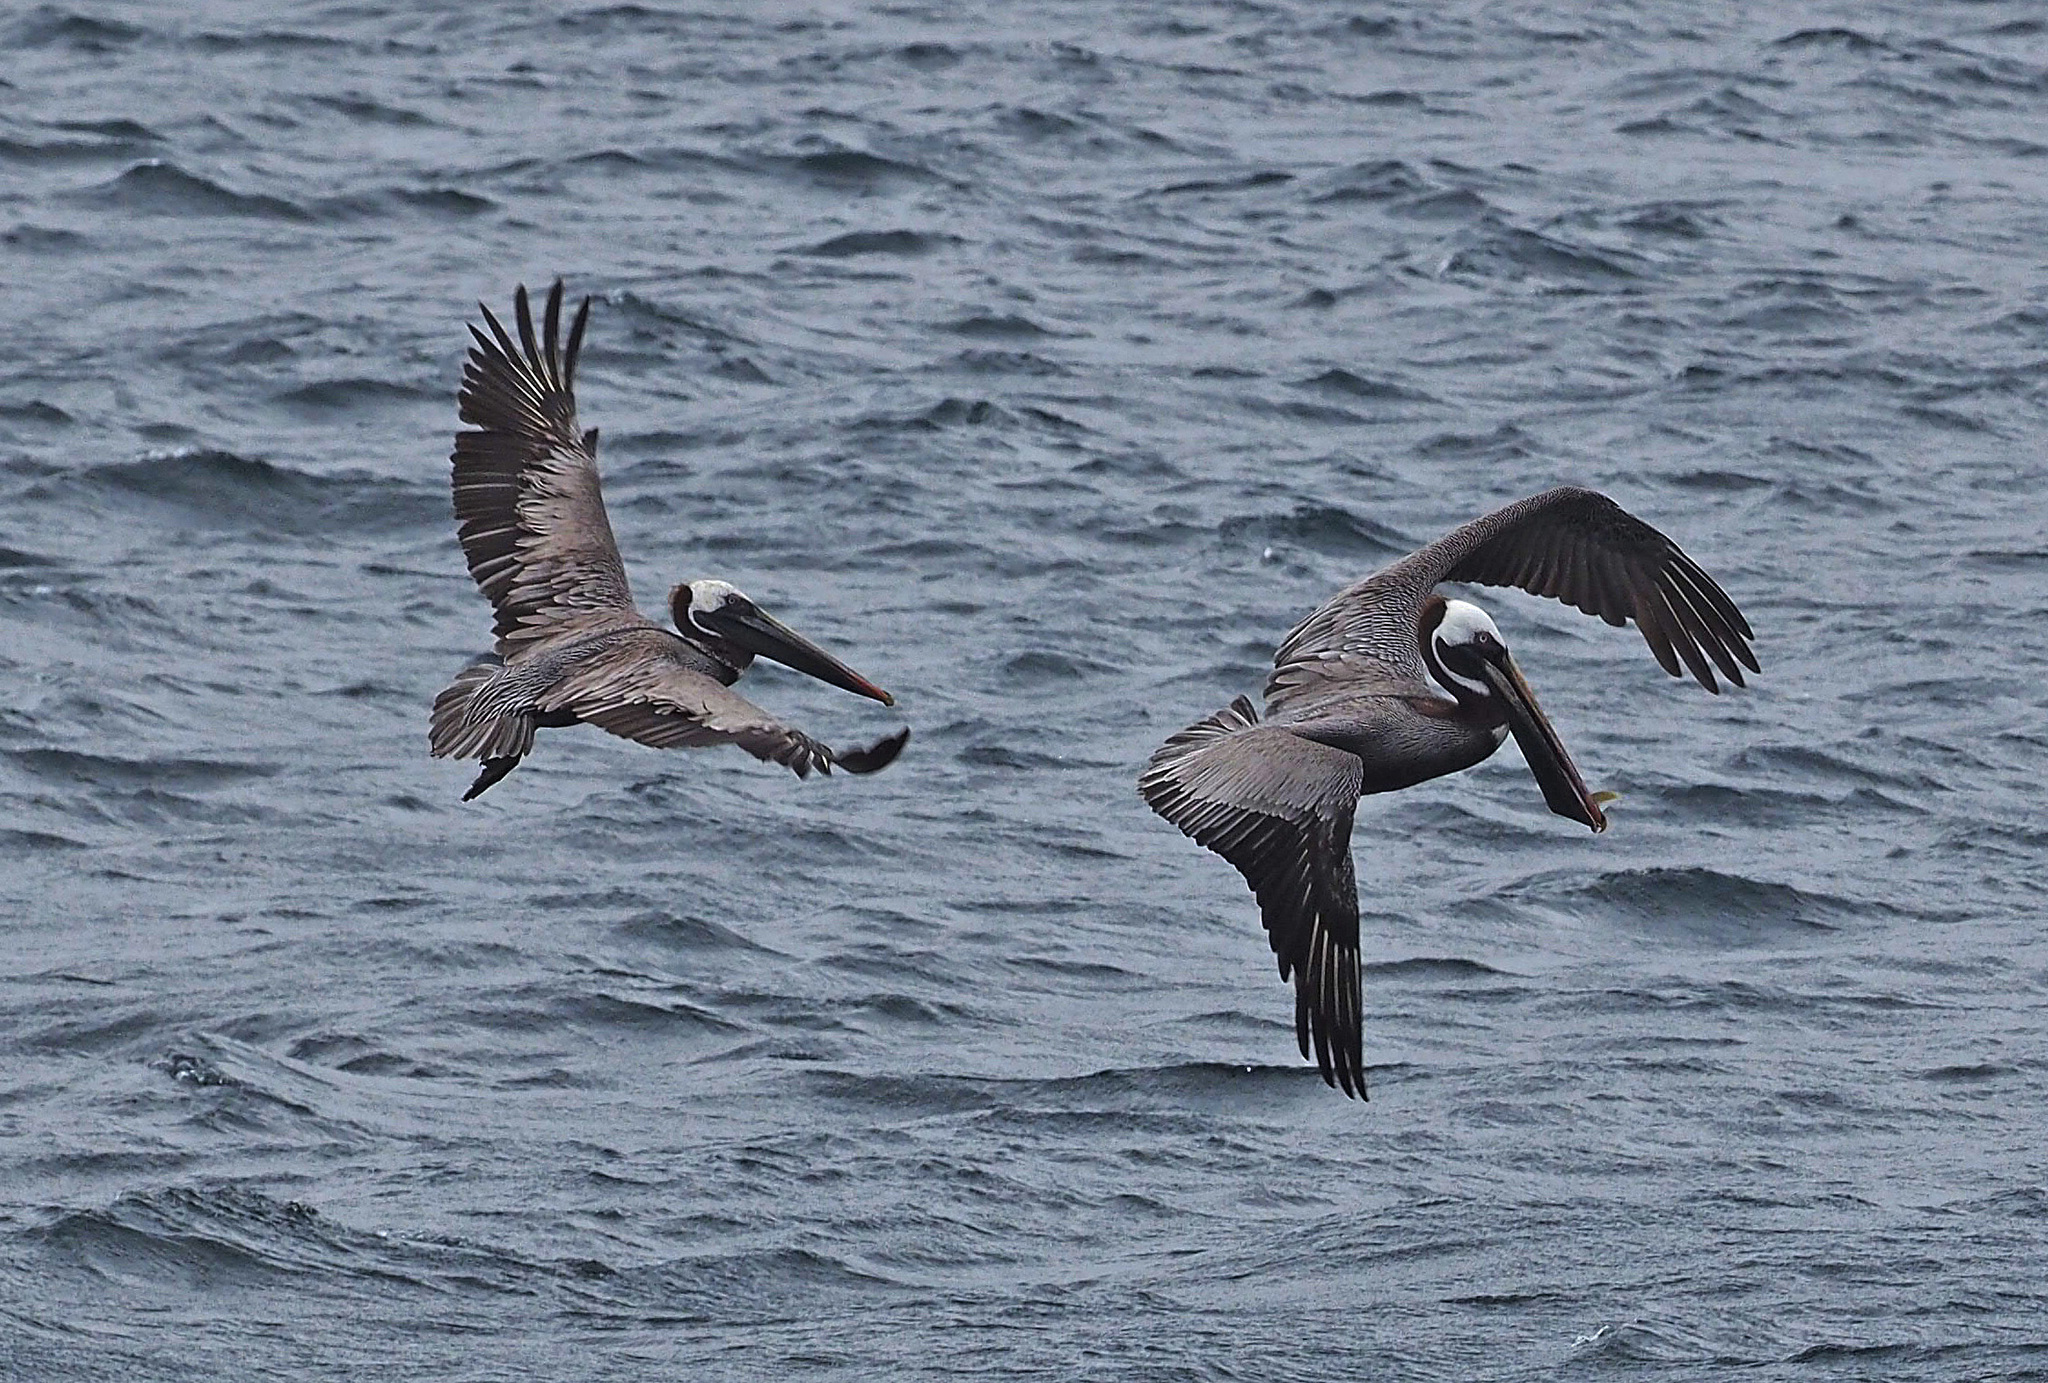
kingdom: Animalia
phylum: Chordata
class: Aves
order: Pelecaniformes
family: Pelecanidae
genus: Pelecanus
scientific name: Pelecanus occidentalis
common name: Brown pelican
